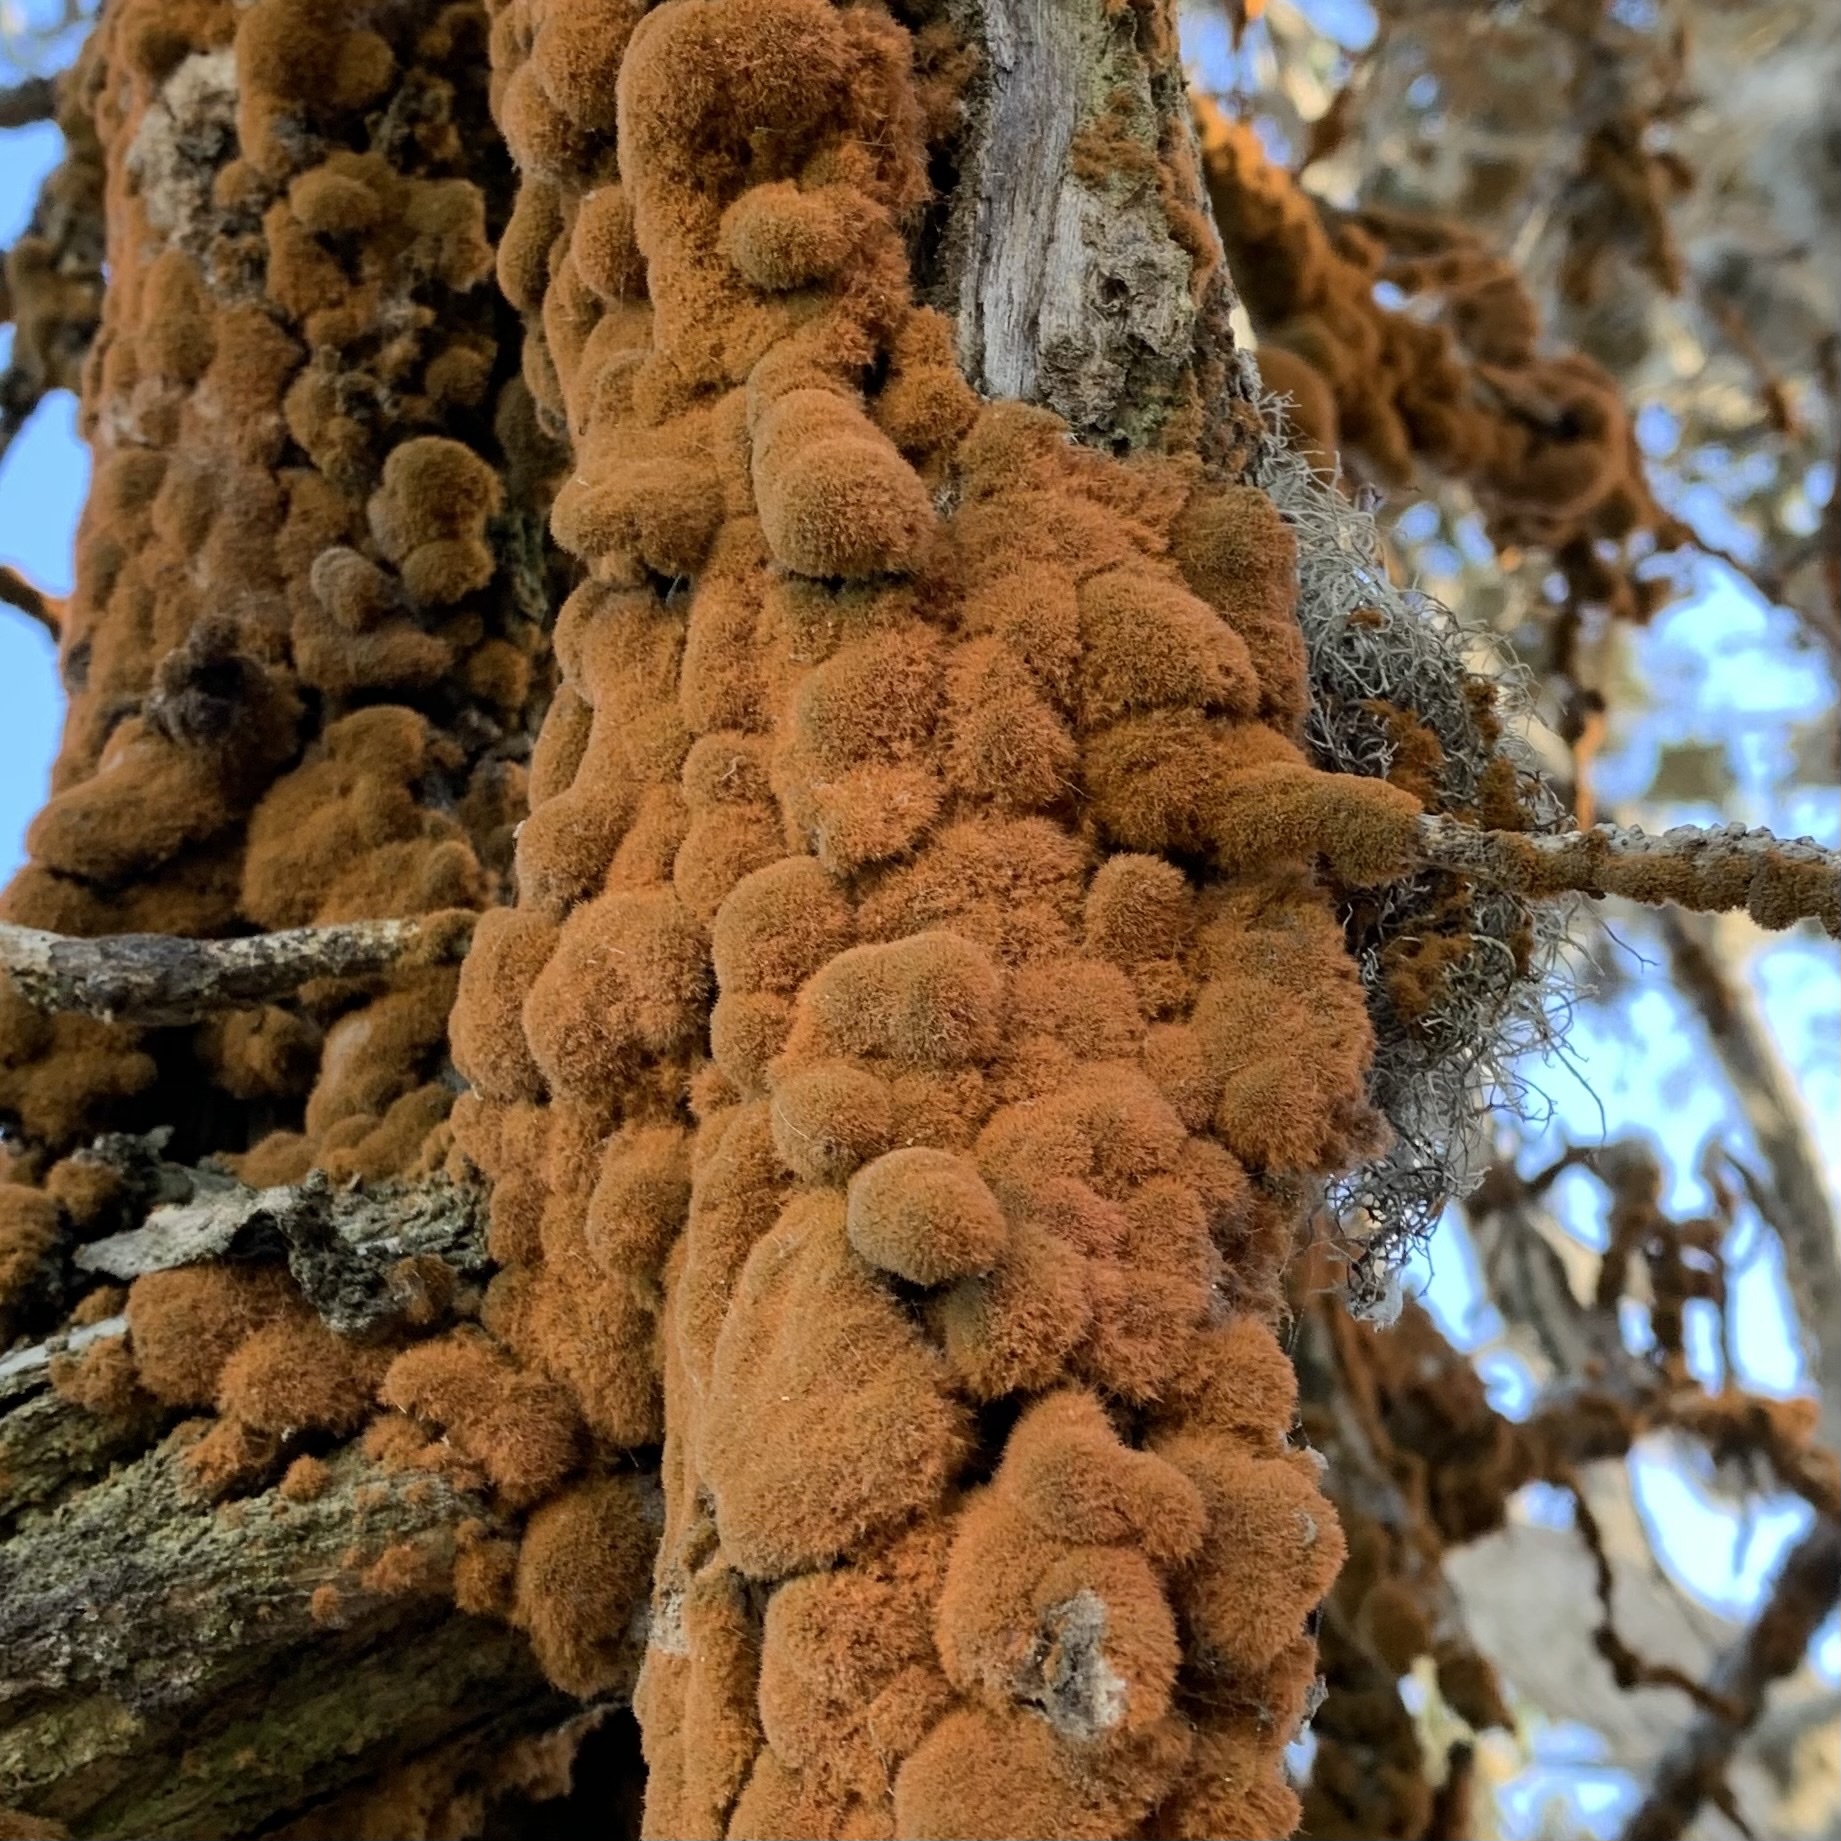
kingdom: Plantae
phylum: Chlorophyta
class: Ulvophyceae
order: Trentepohliales
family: Trentepohliaceae
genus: Trentepohlia
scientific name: Trentepohlia aurea
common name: Orange rock hair
